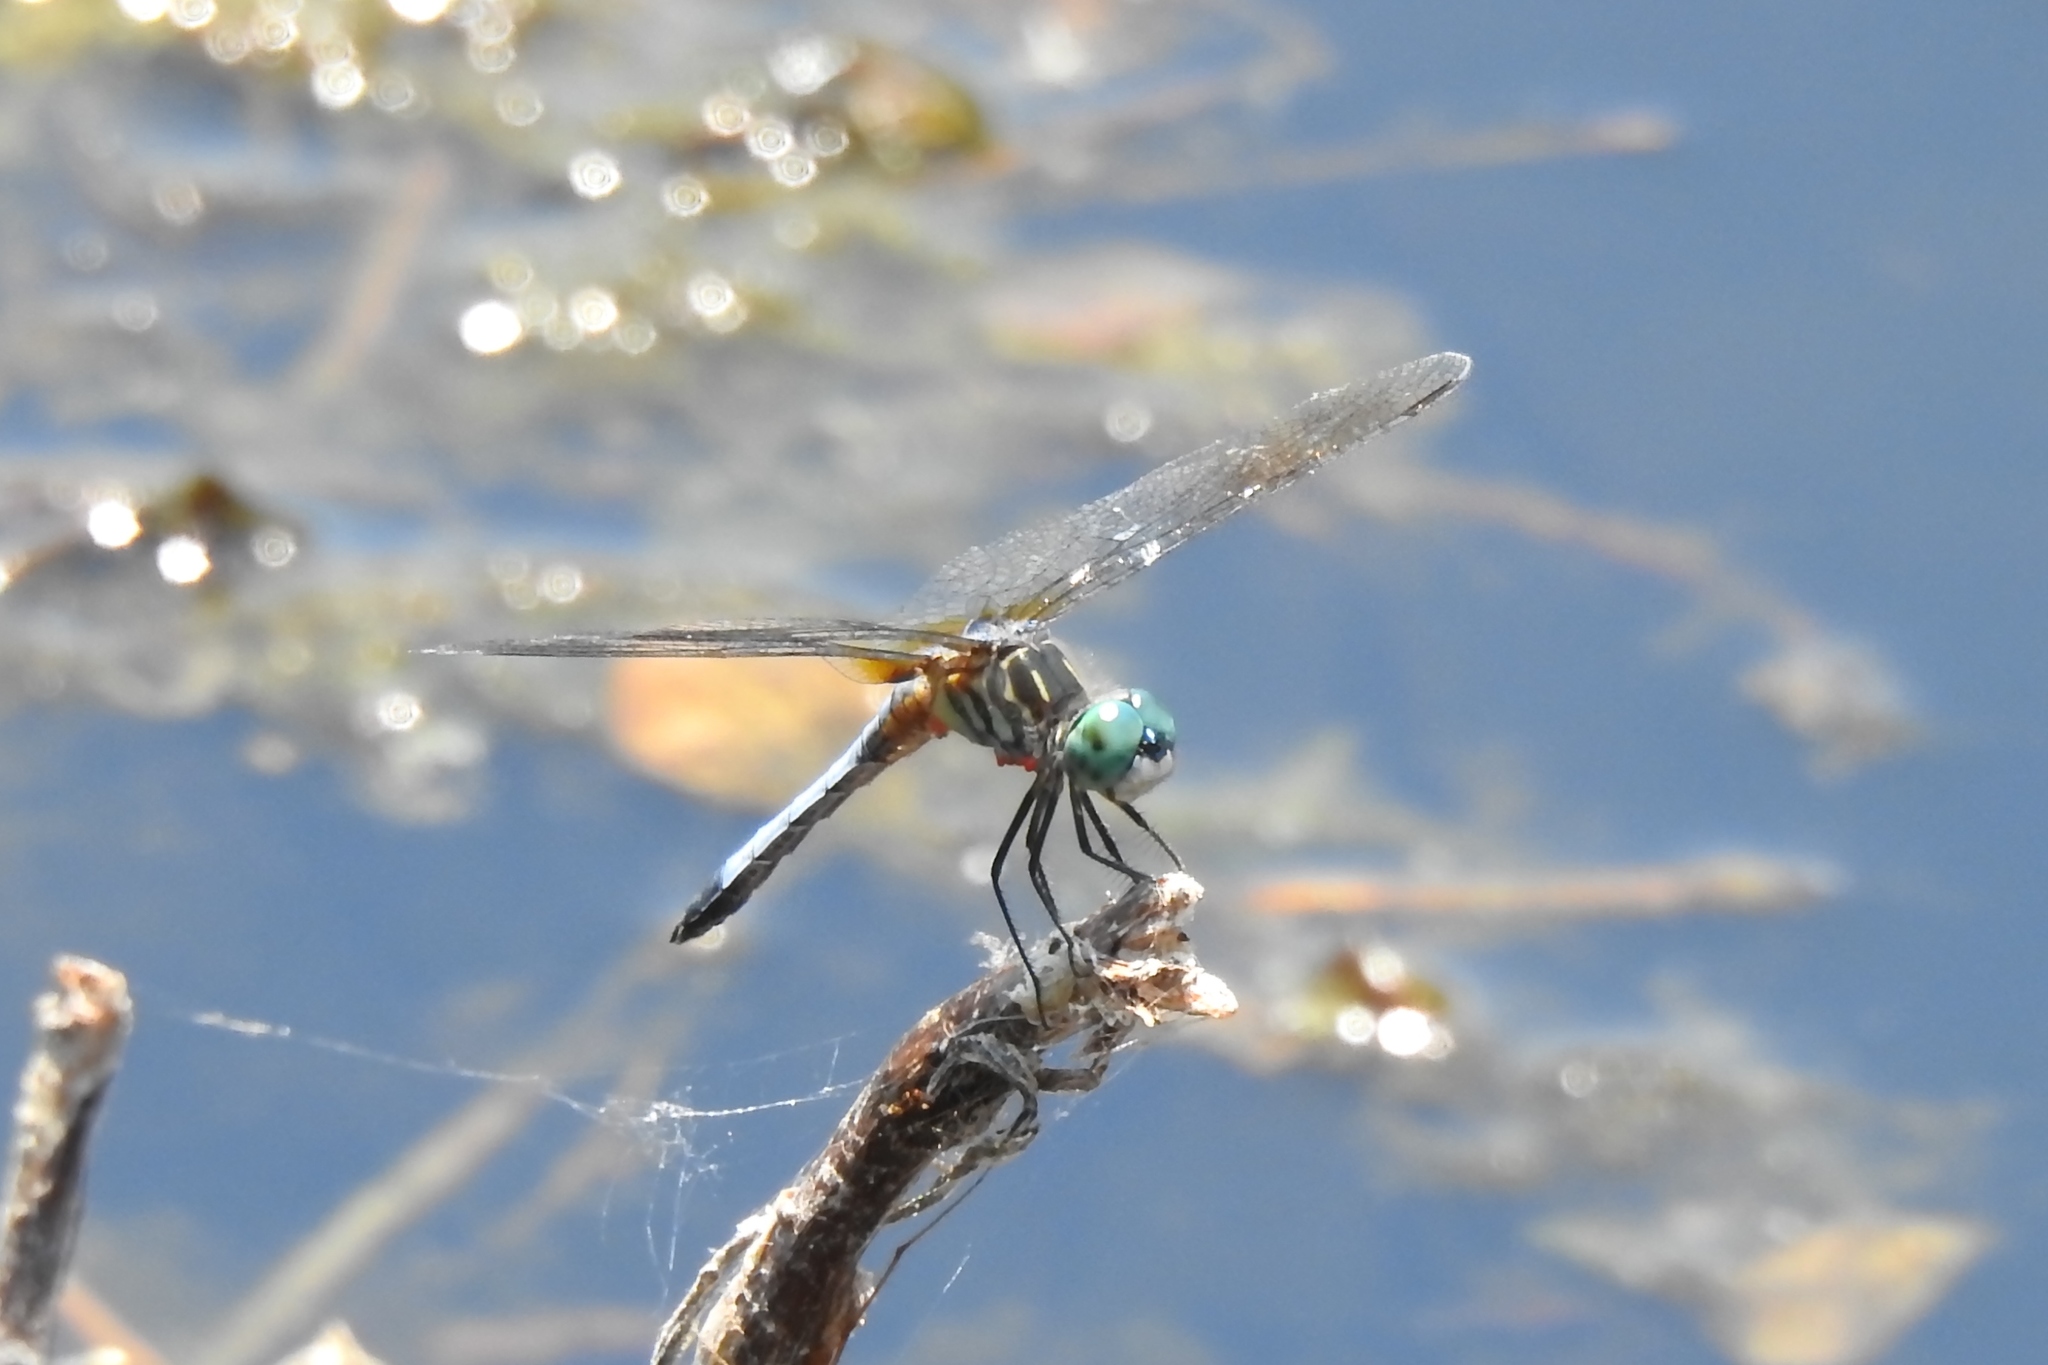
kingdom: Animalia
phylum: Arthropoda
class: Insecta
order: Odonata
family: Libellulidae
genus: Pachydiplax
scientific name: Pachydiplax longipennis
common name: Blue dasher
